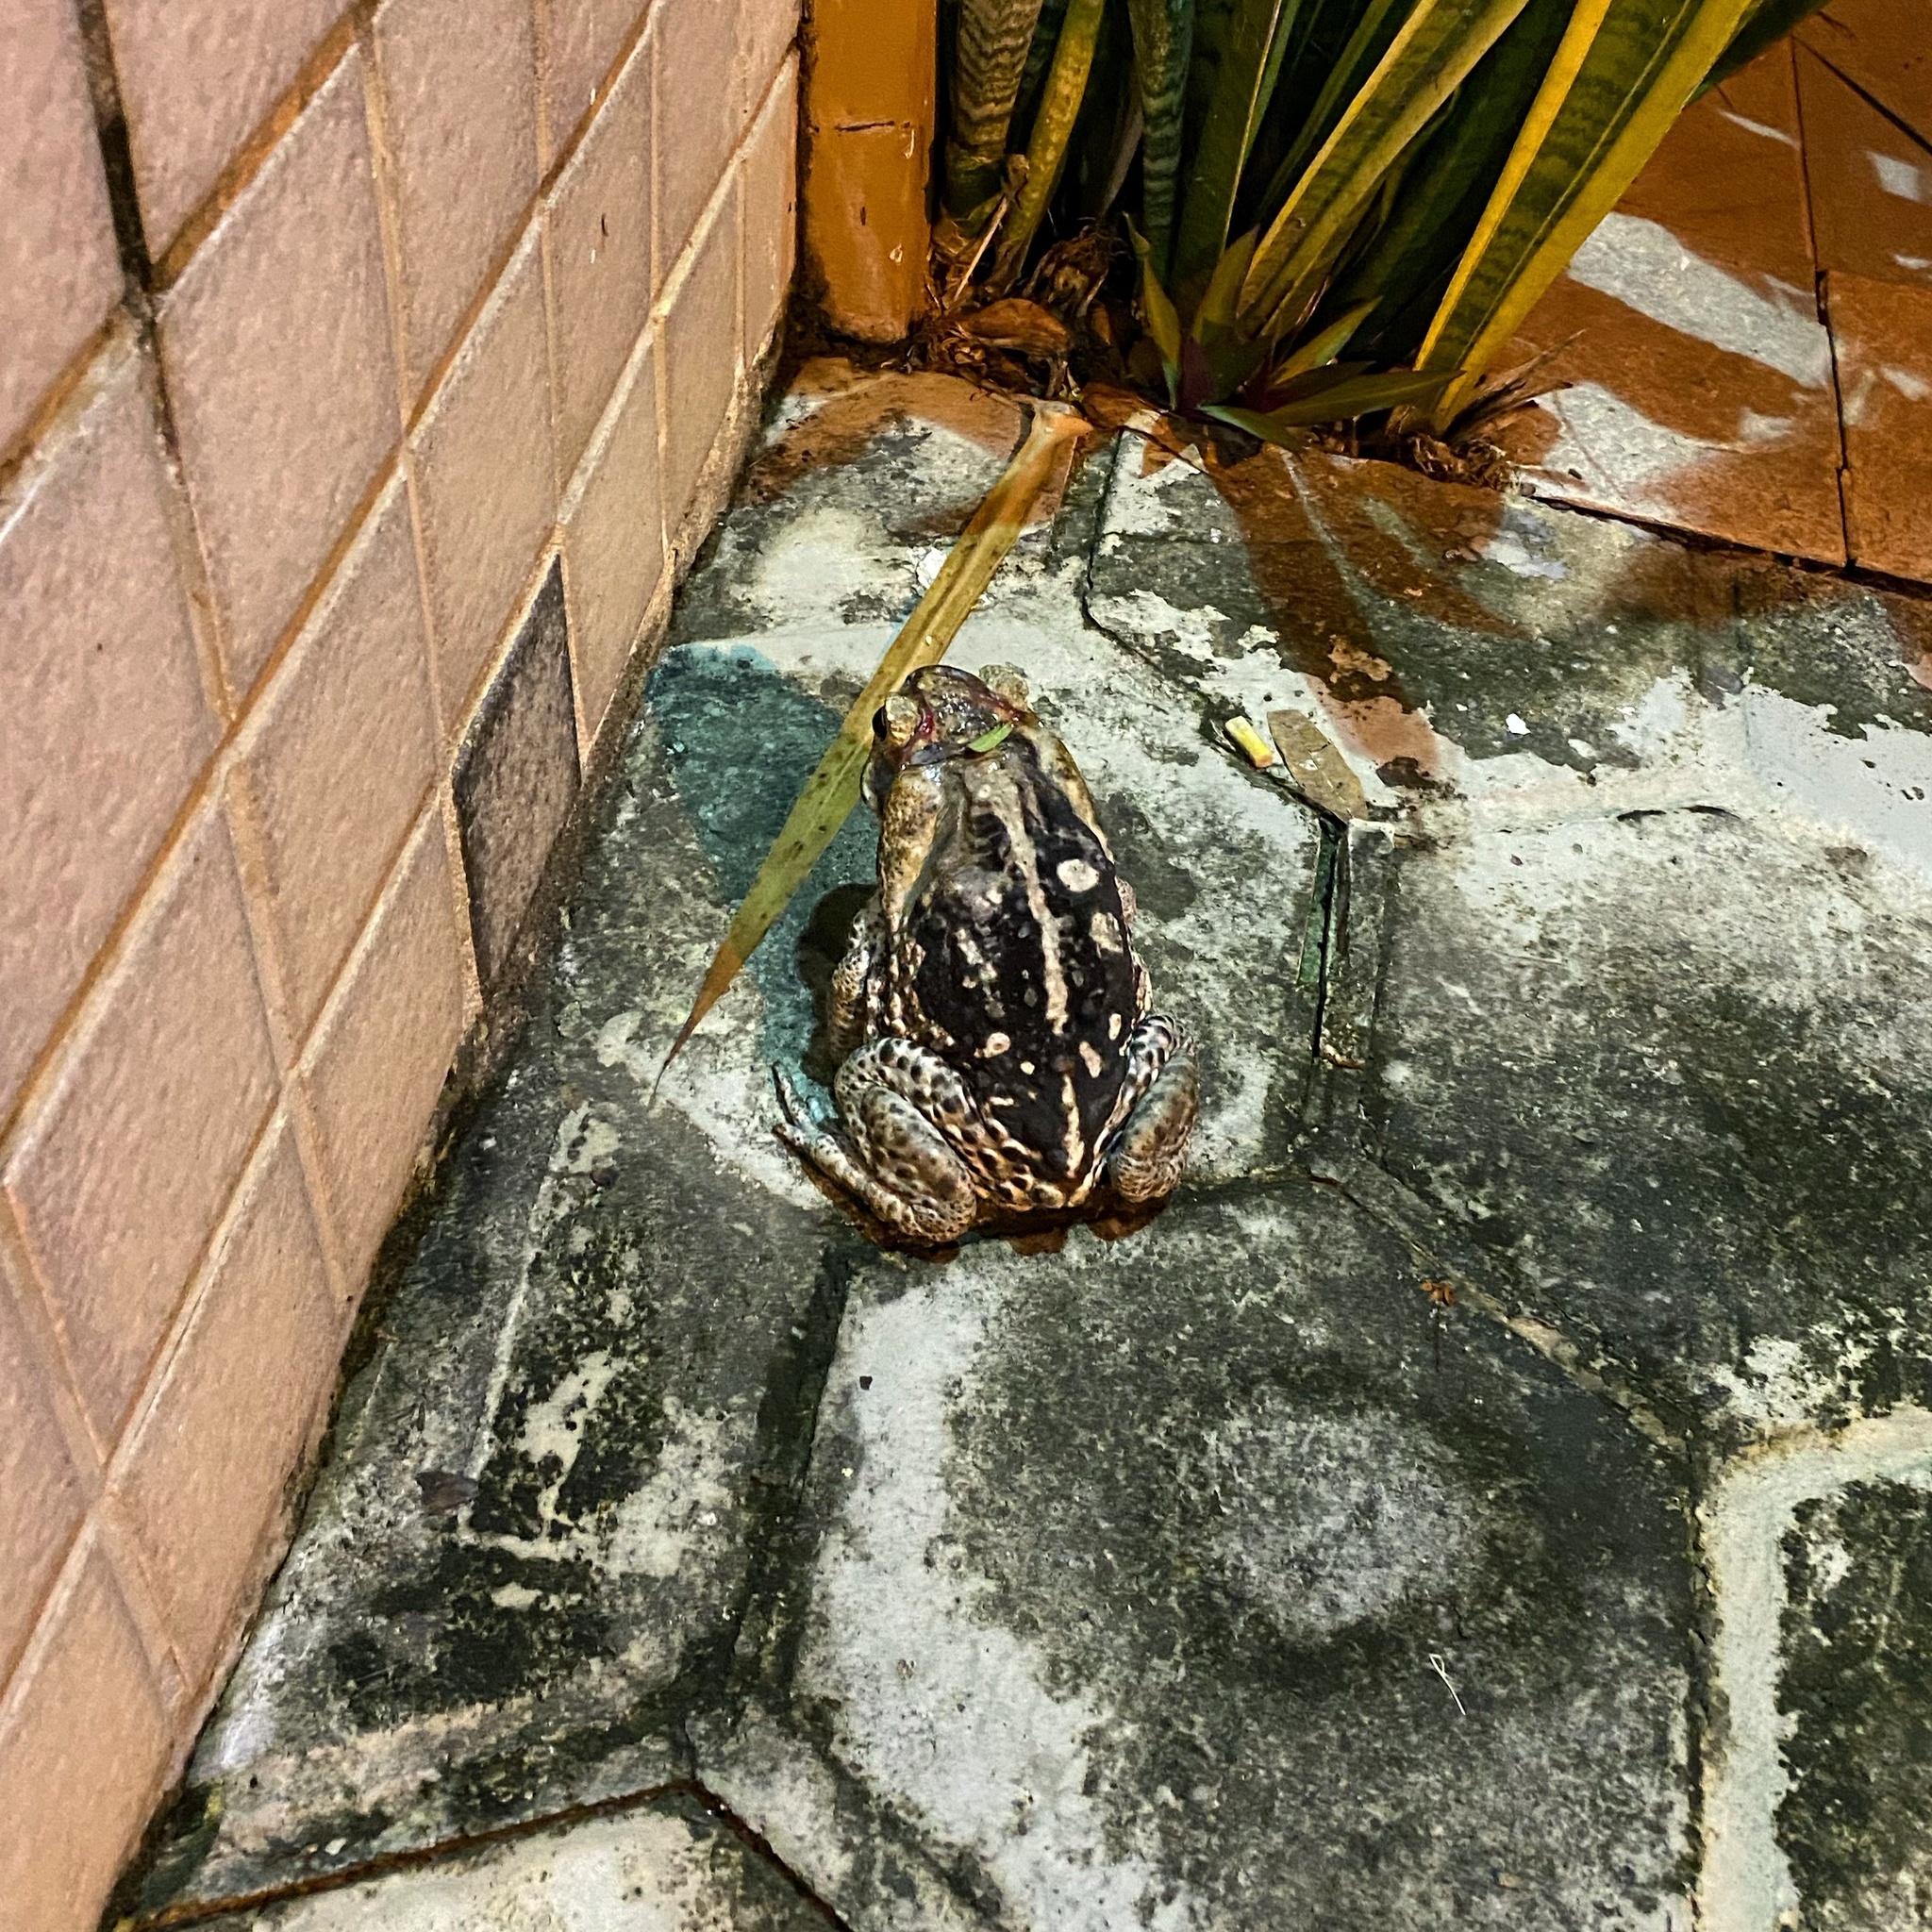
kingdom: Animalia
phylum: Chordata
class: Amphibia
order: Anura
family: Bufonidae
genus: Rhinella
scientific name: Rhinella diptycha
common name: Cope's toad
